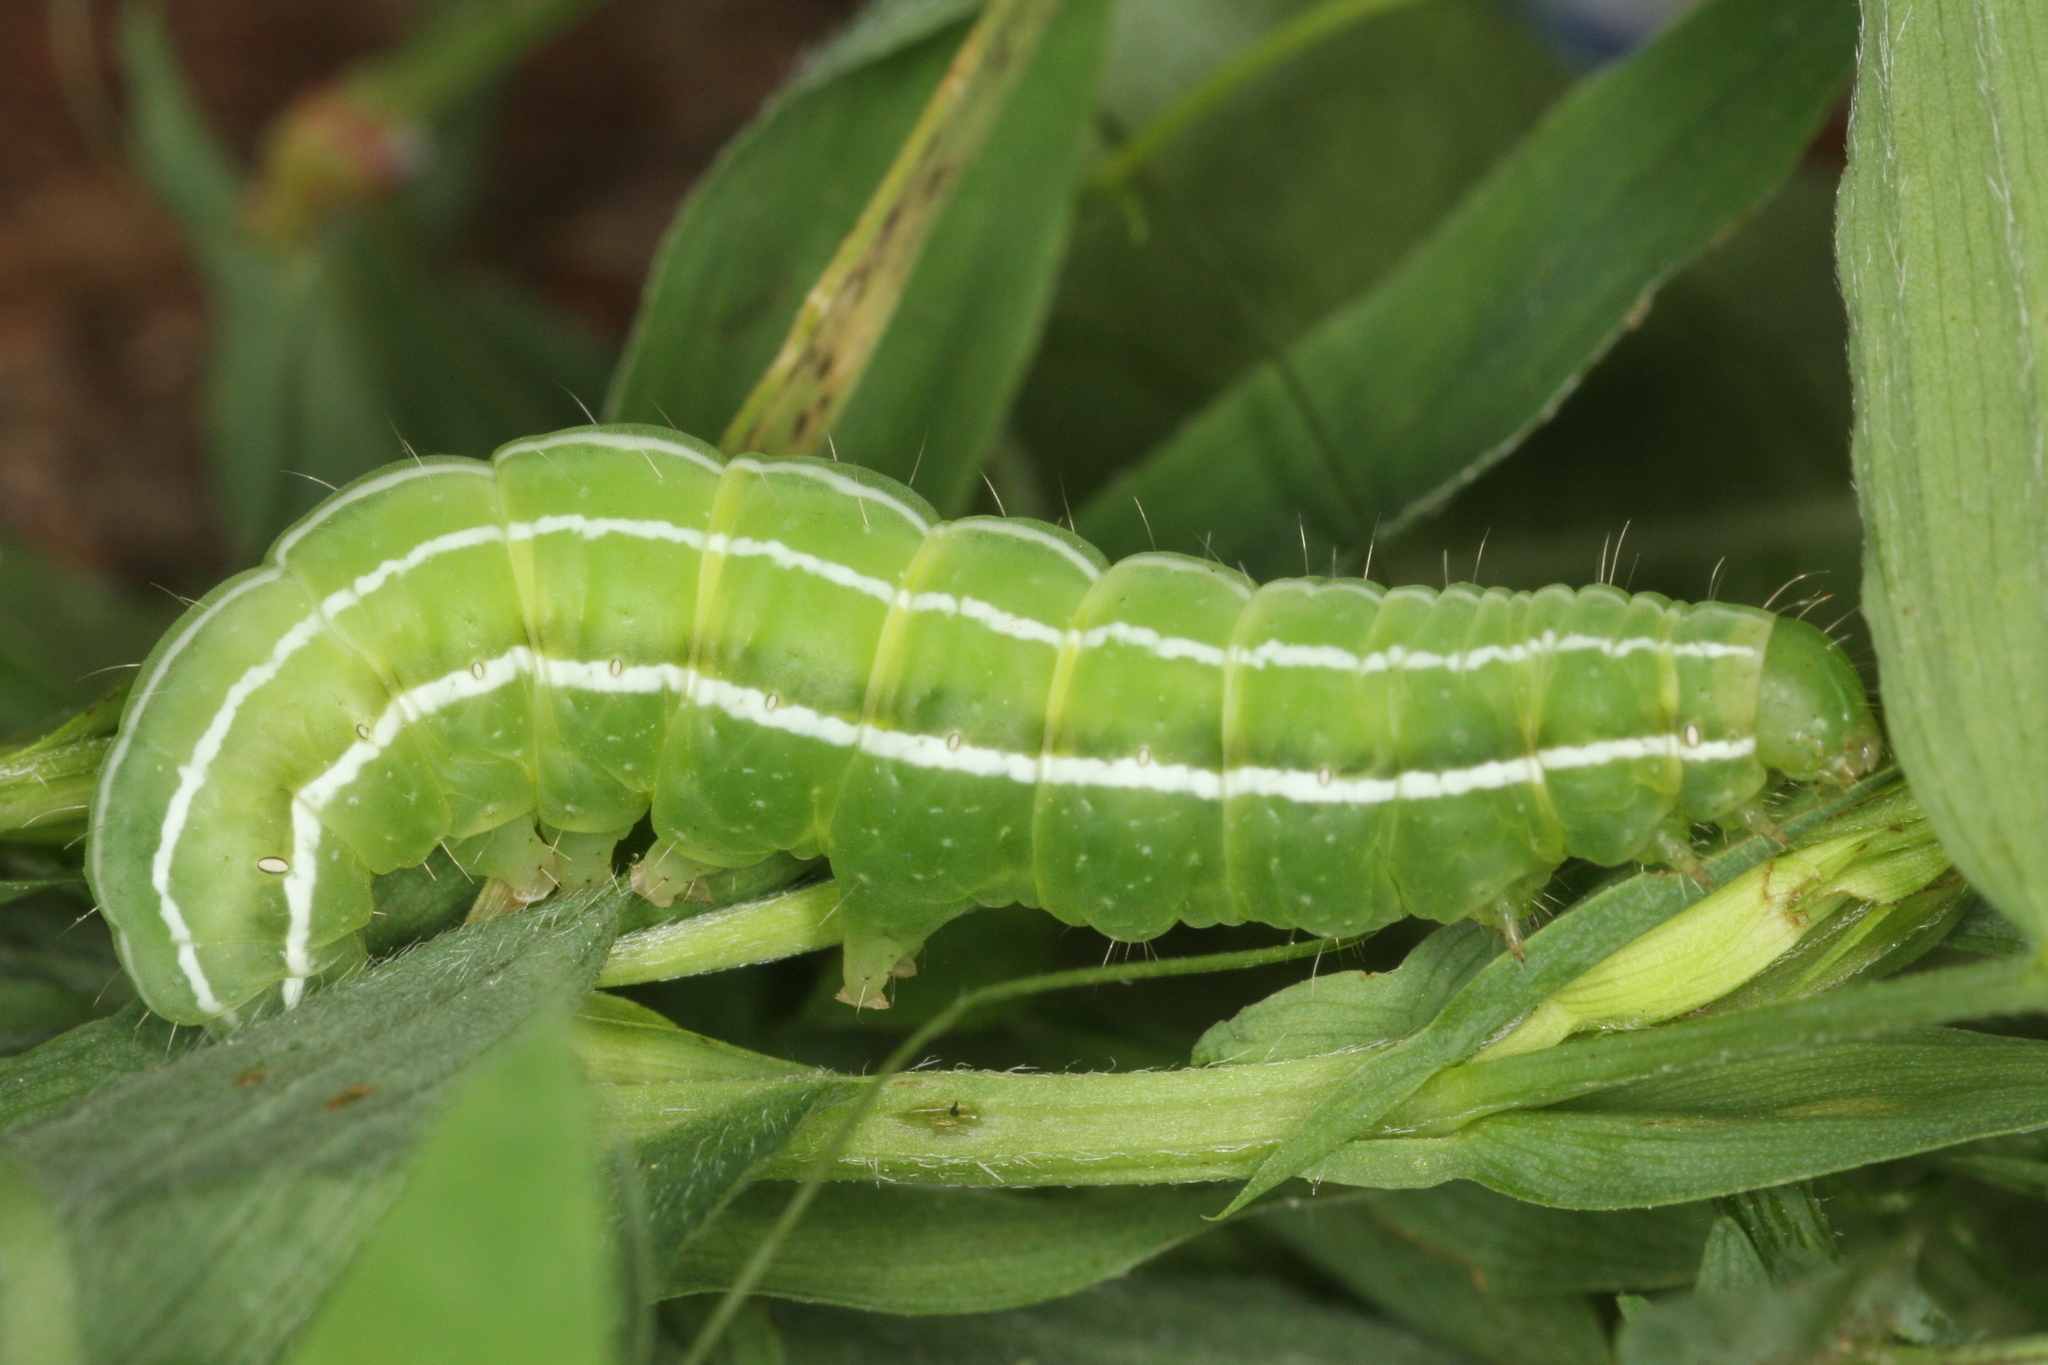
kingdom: Animalia
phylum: Arthropoda
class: Insecta
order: Lepidoptera
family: Noctuidae
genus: Amphipyra
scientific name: Amphipyra tragopoginis
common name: Mouse moth
